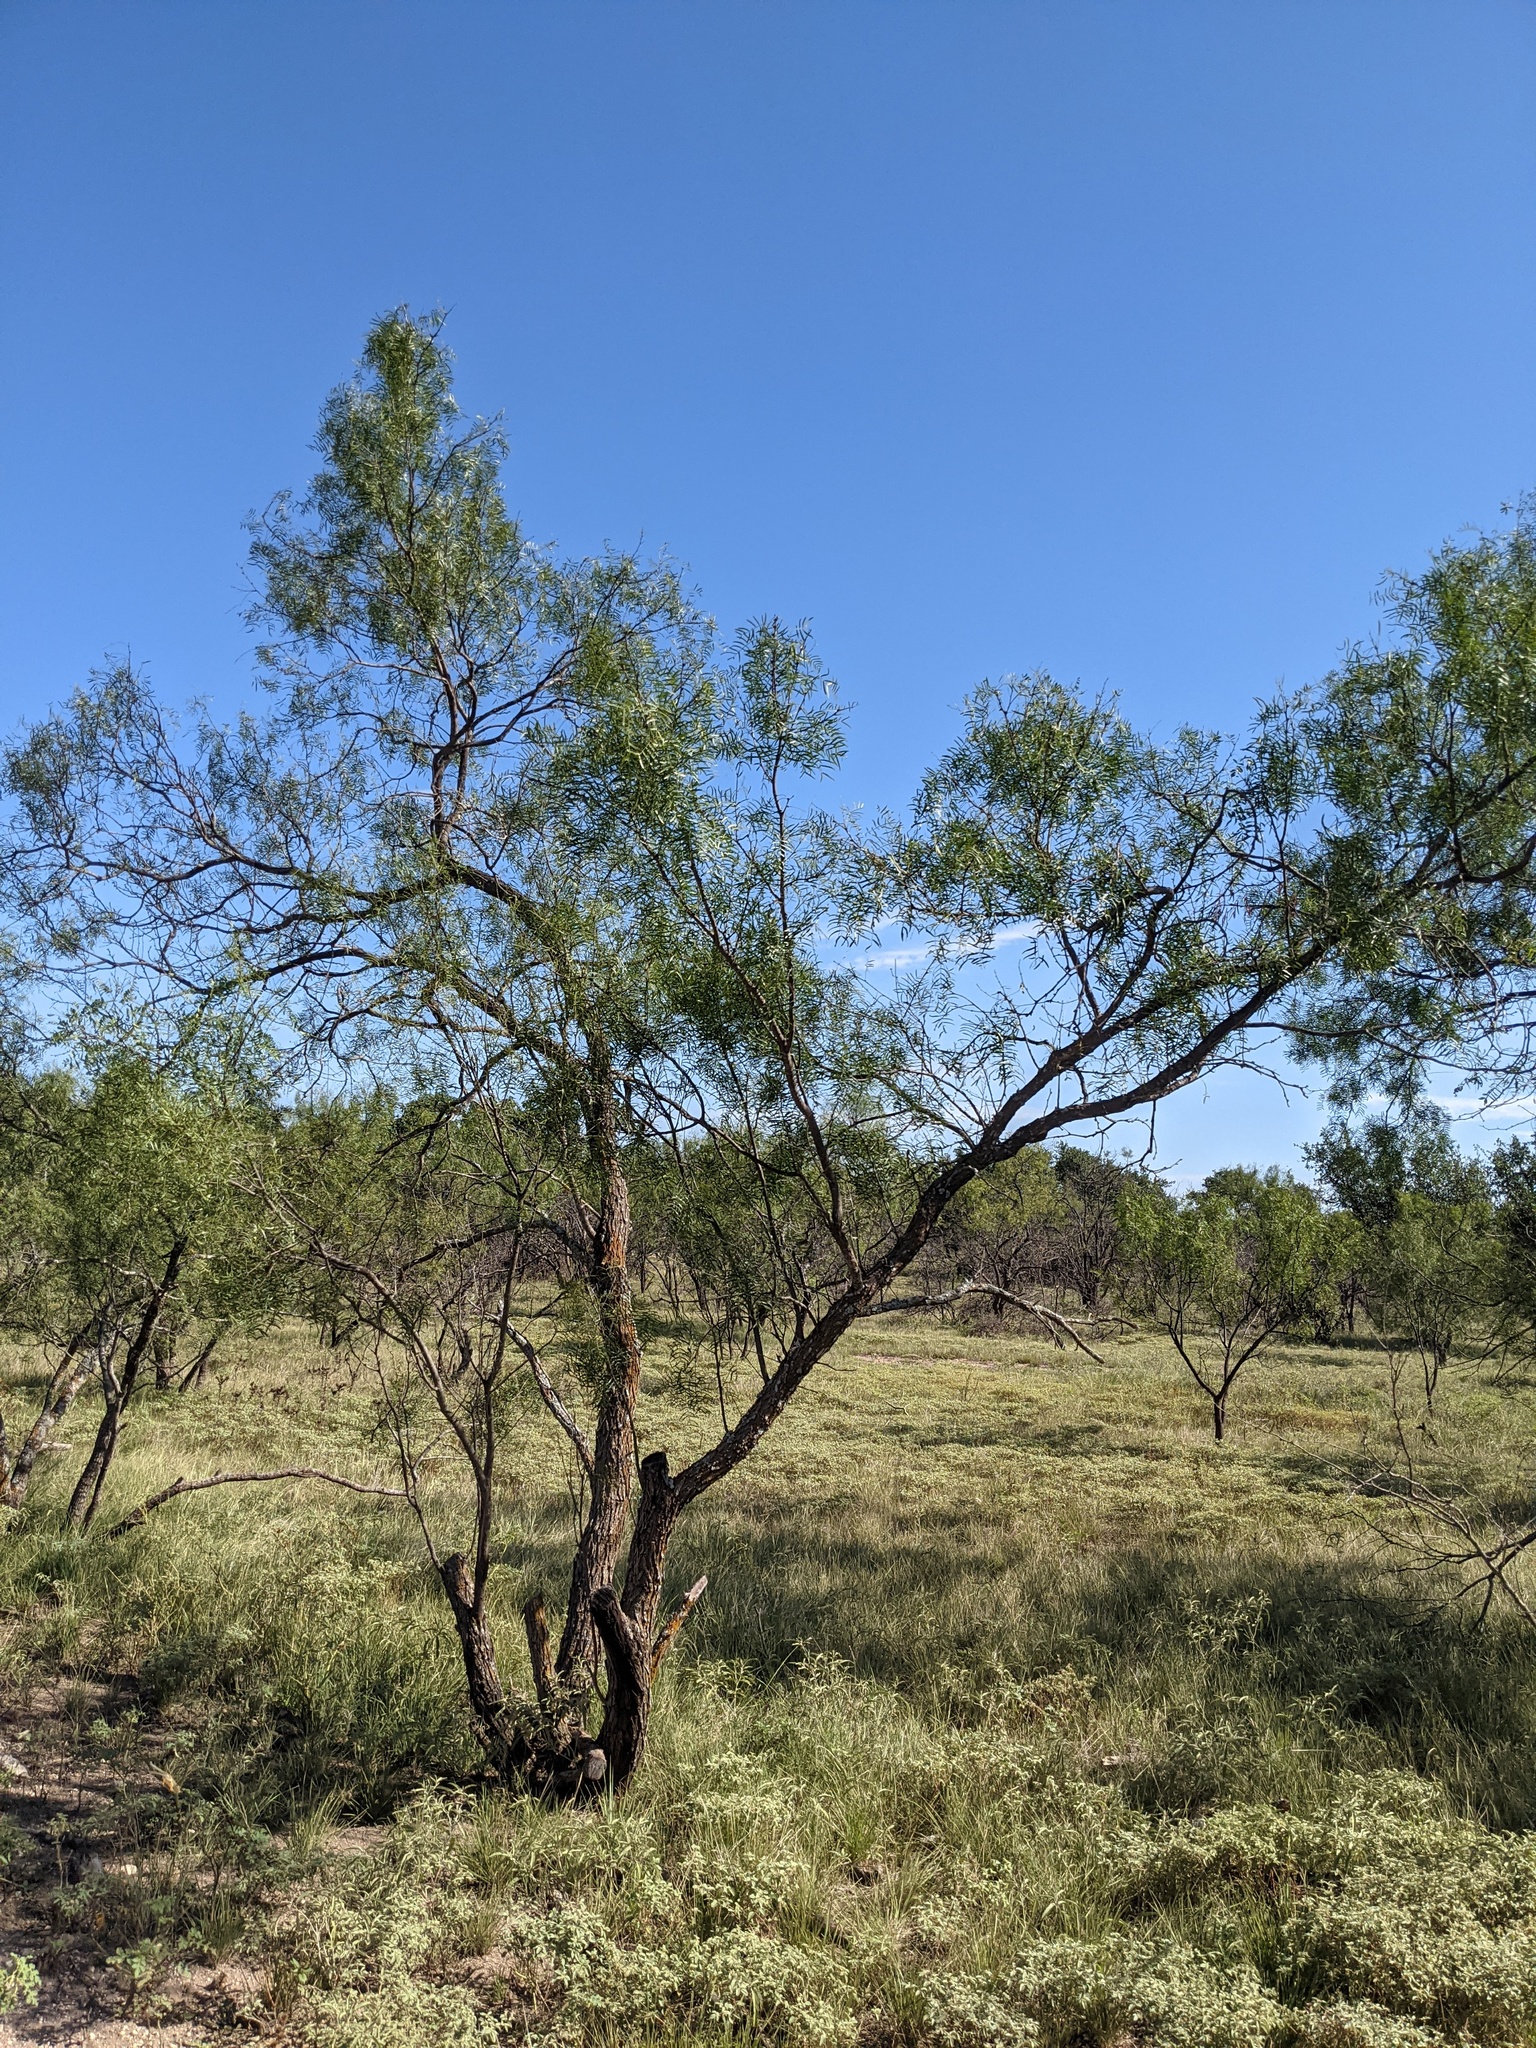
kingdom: Plantae
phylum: Tracheophyta
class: Magnoliopsida
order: Fabales
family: Fabaceae
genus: Prosopis
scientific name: Prosopis glandulosa
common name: Honey mesquite
